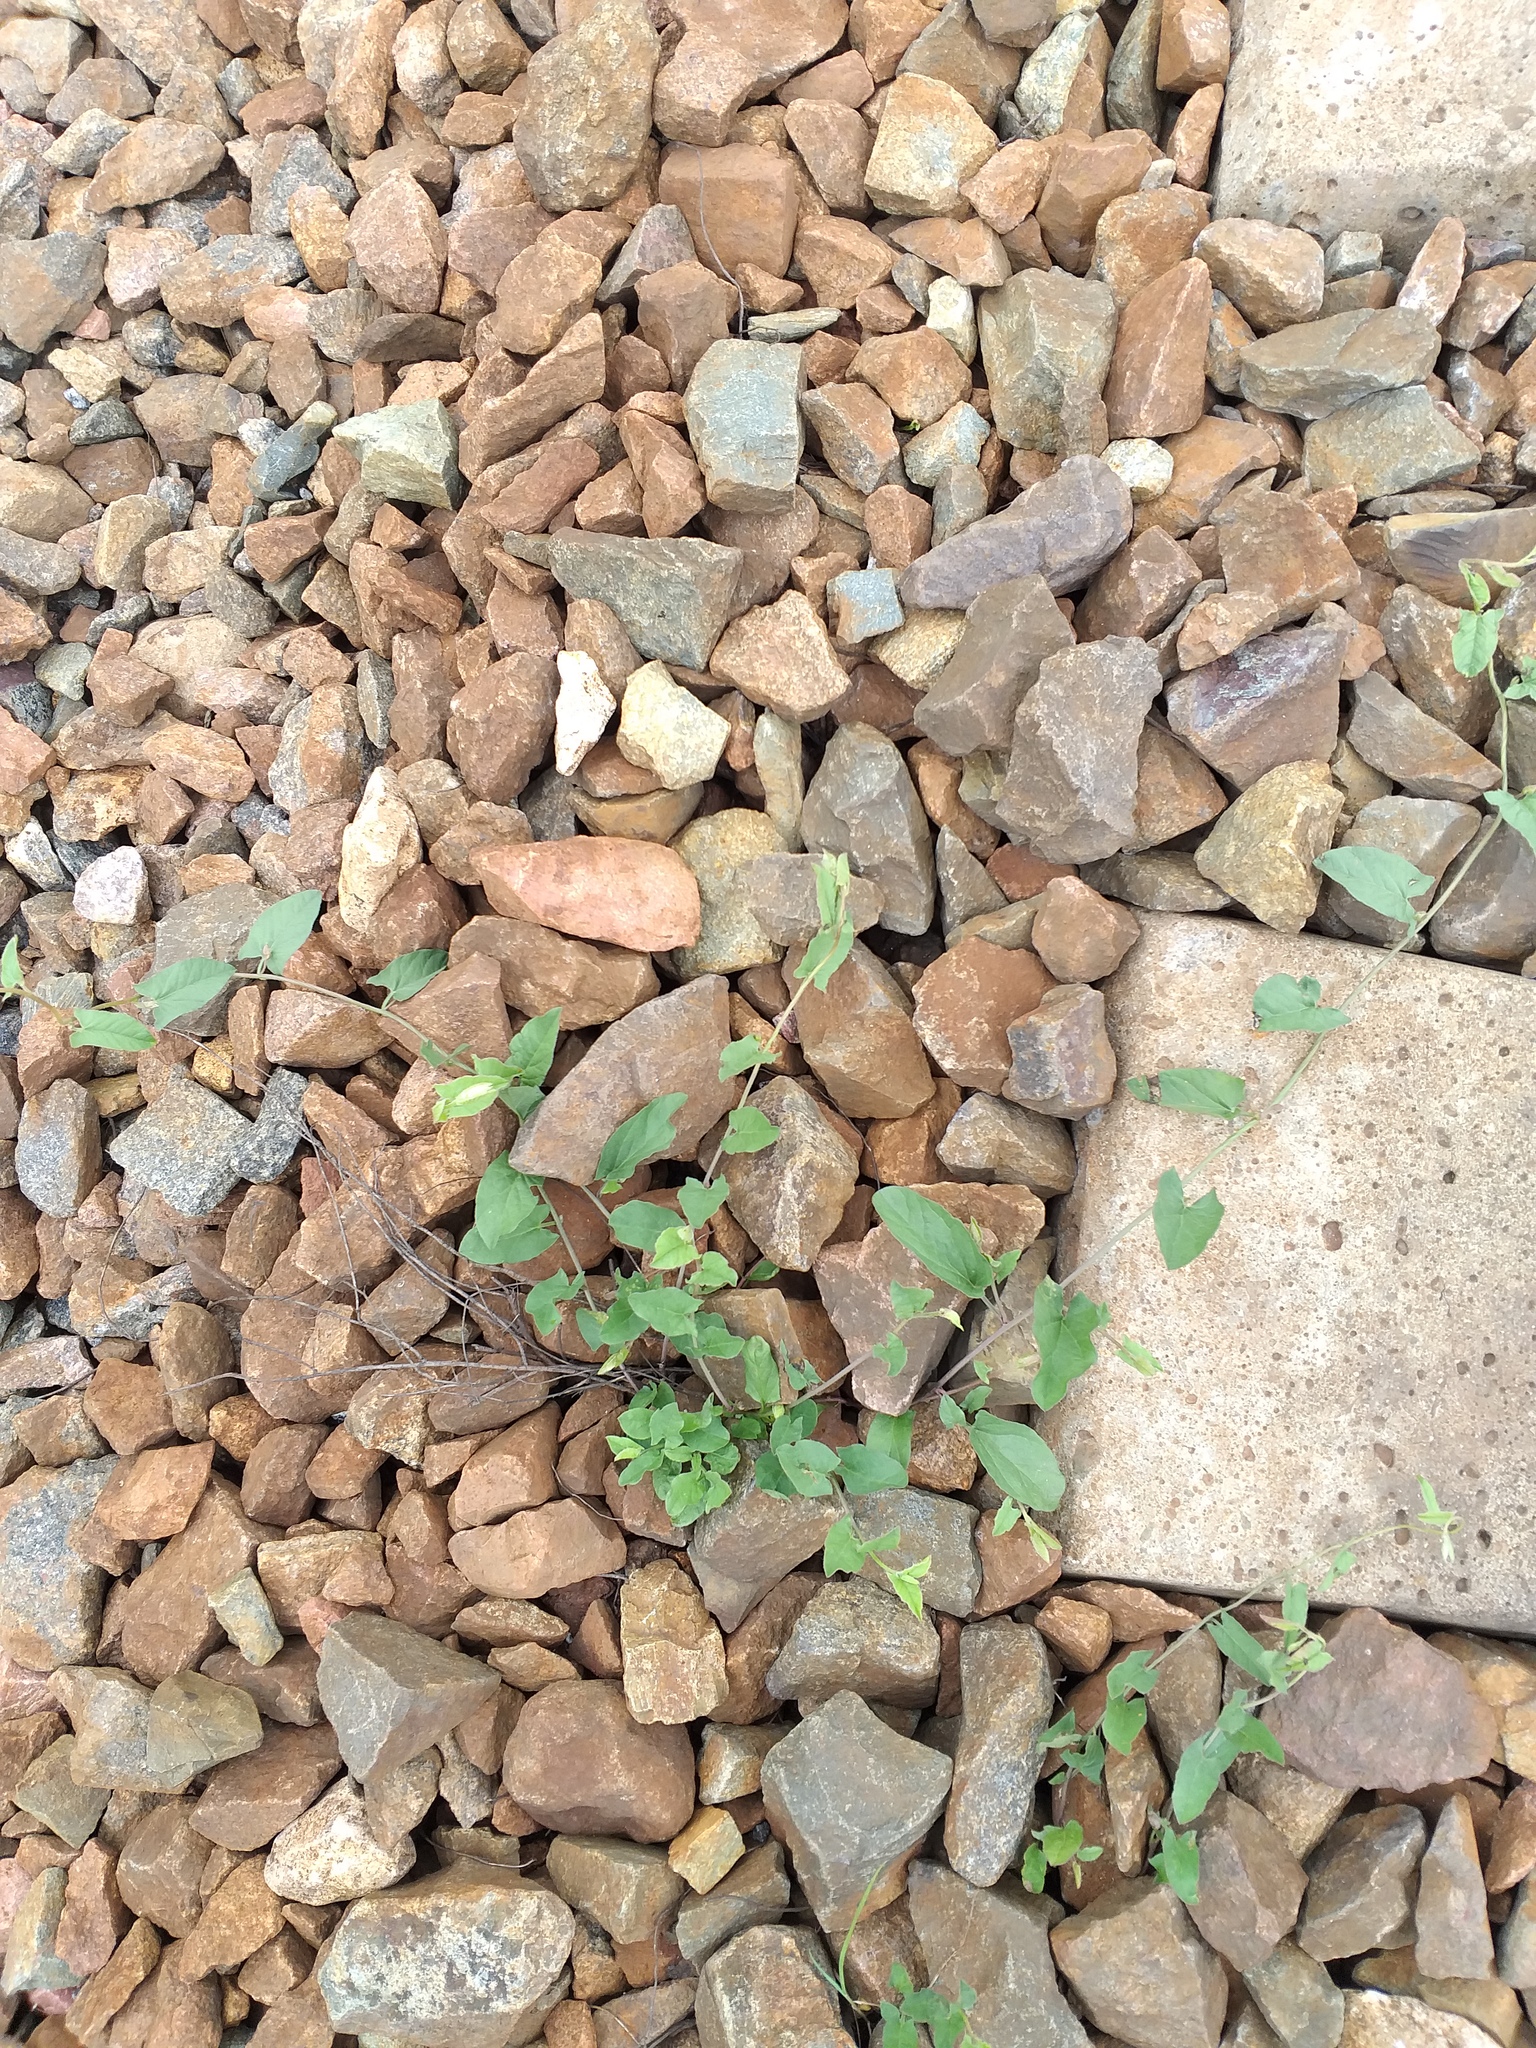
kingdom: Plantae
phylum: Tracheophyta
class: Magnoliopsida
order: Solanales
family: Convolvulaceae
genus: Convolvulus
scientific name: Convolvulus arvensis
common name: Field bindweed
